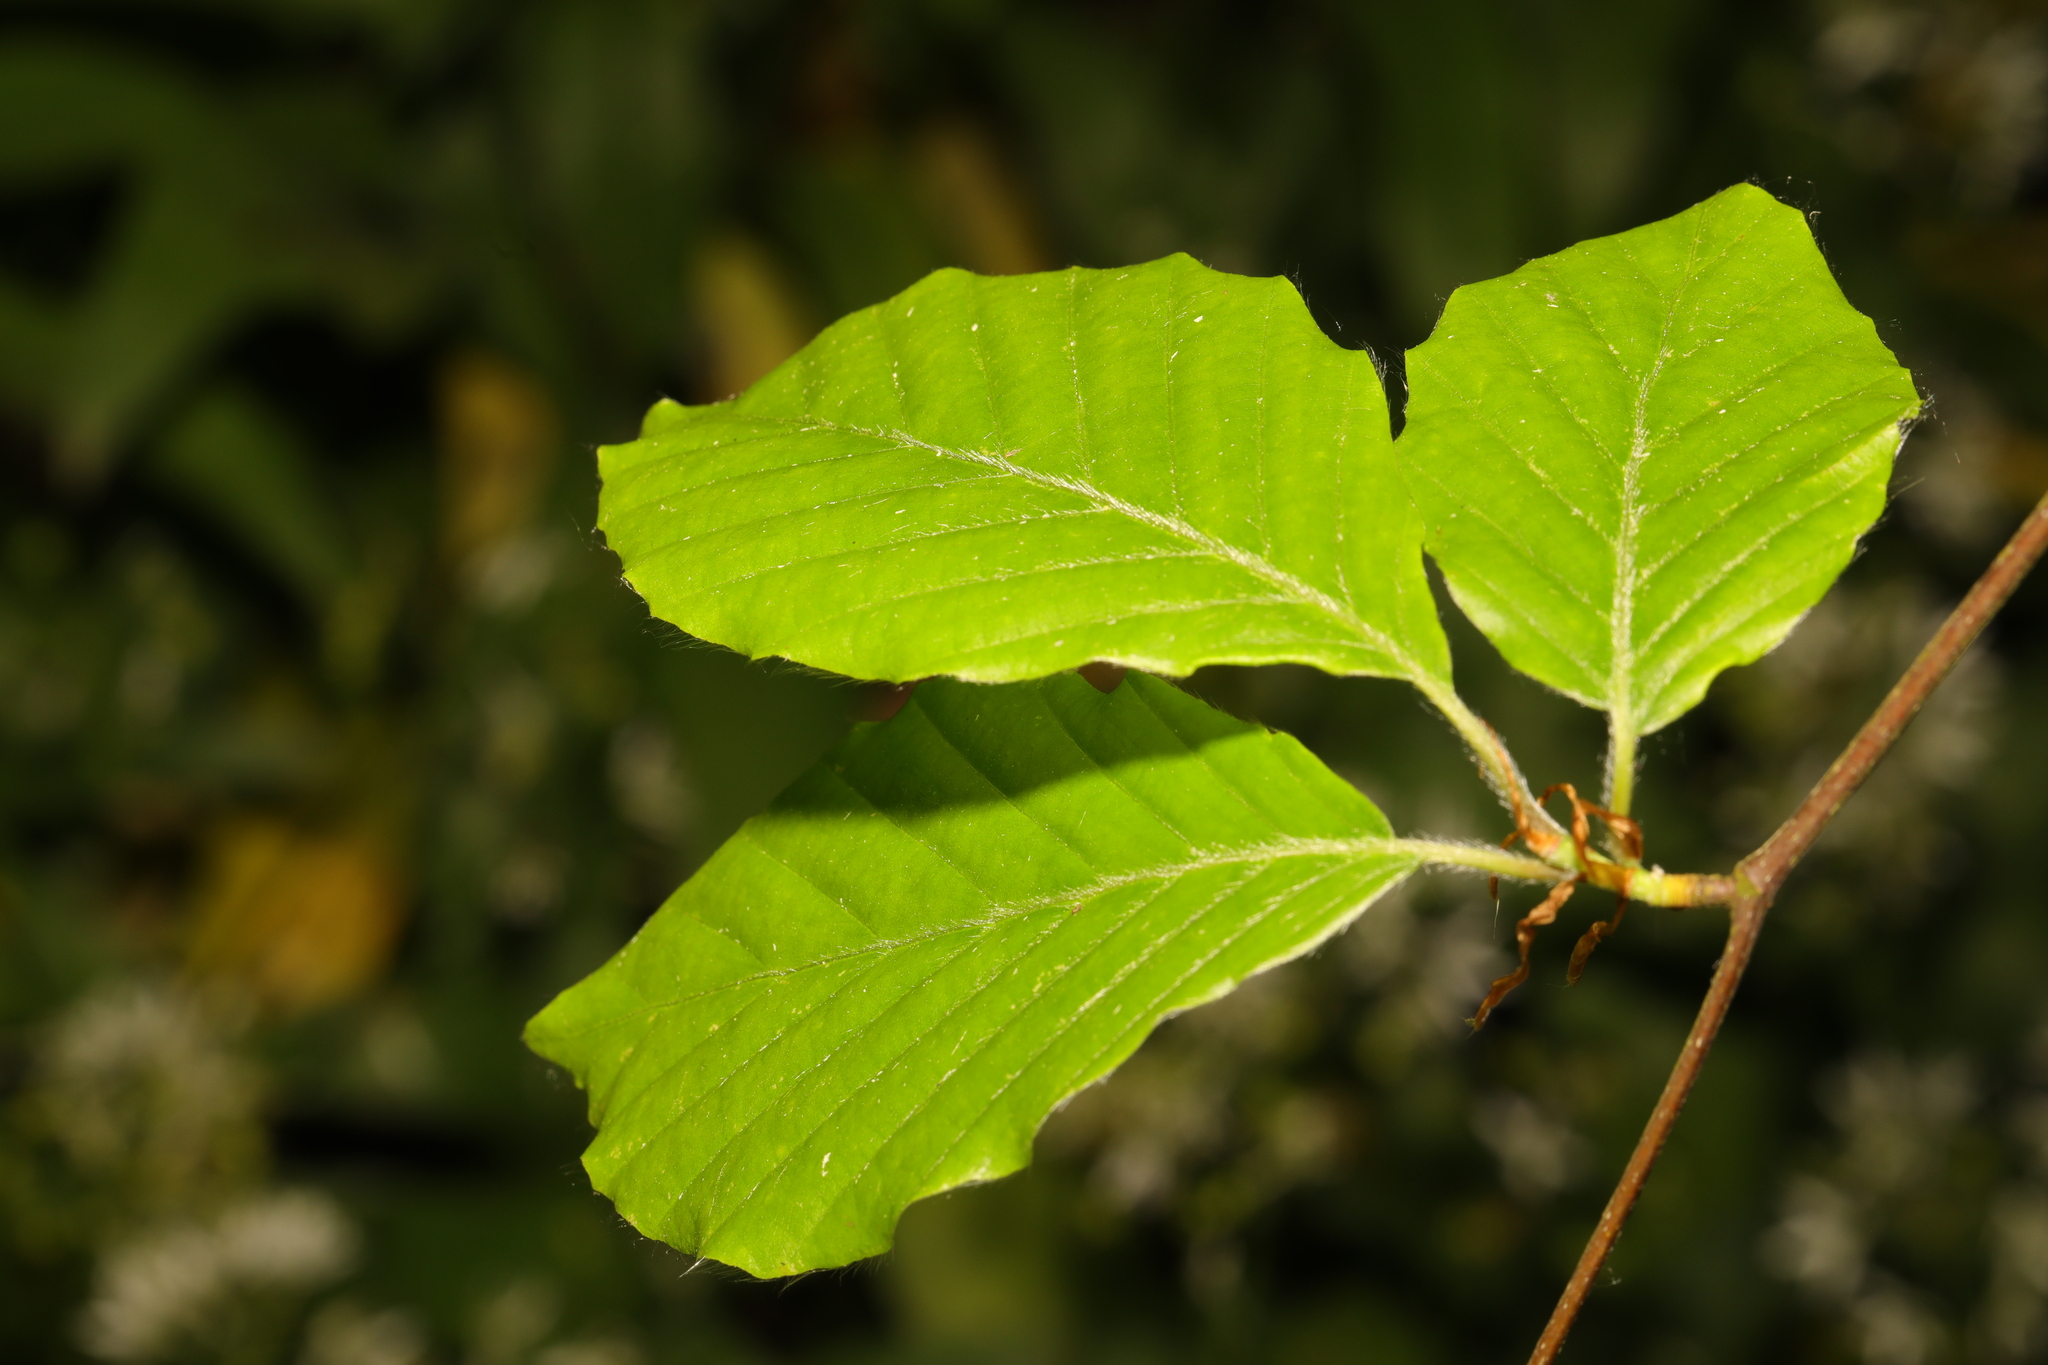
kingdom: Plantae
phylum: Tracheophyta
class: Magnoliopsida
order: Fagales
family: Fagaceae
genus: Fagus
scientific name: Fagus sylvatica
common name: Beech
